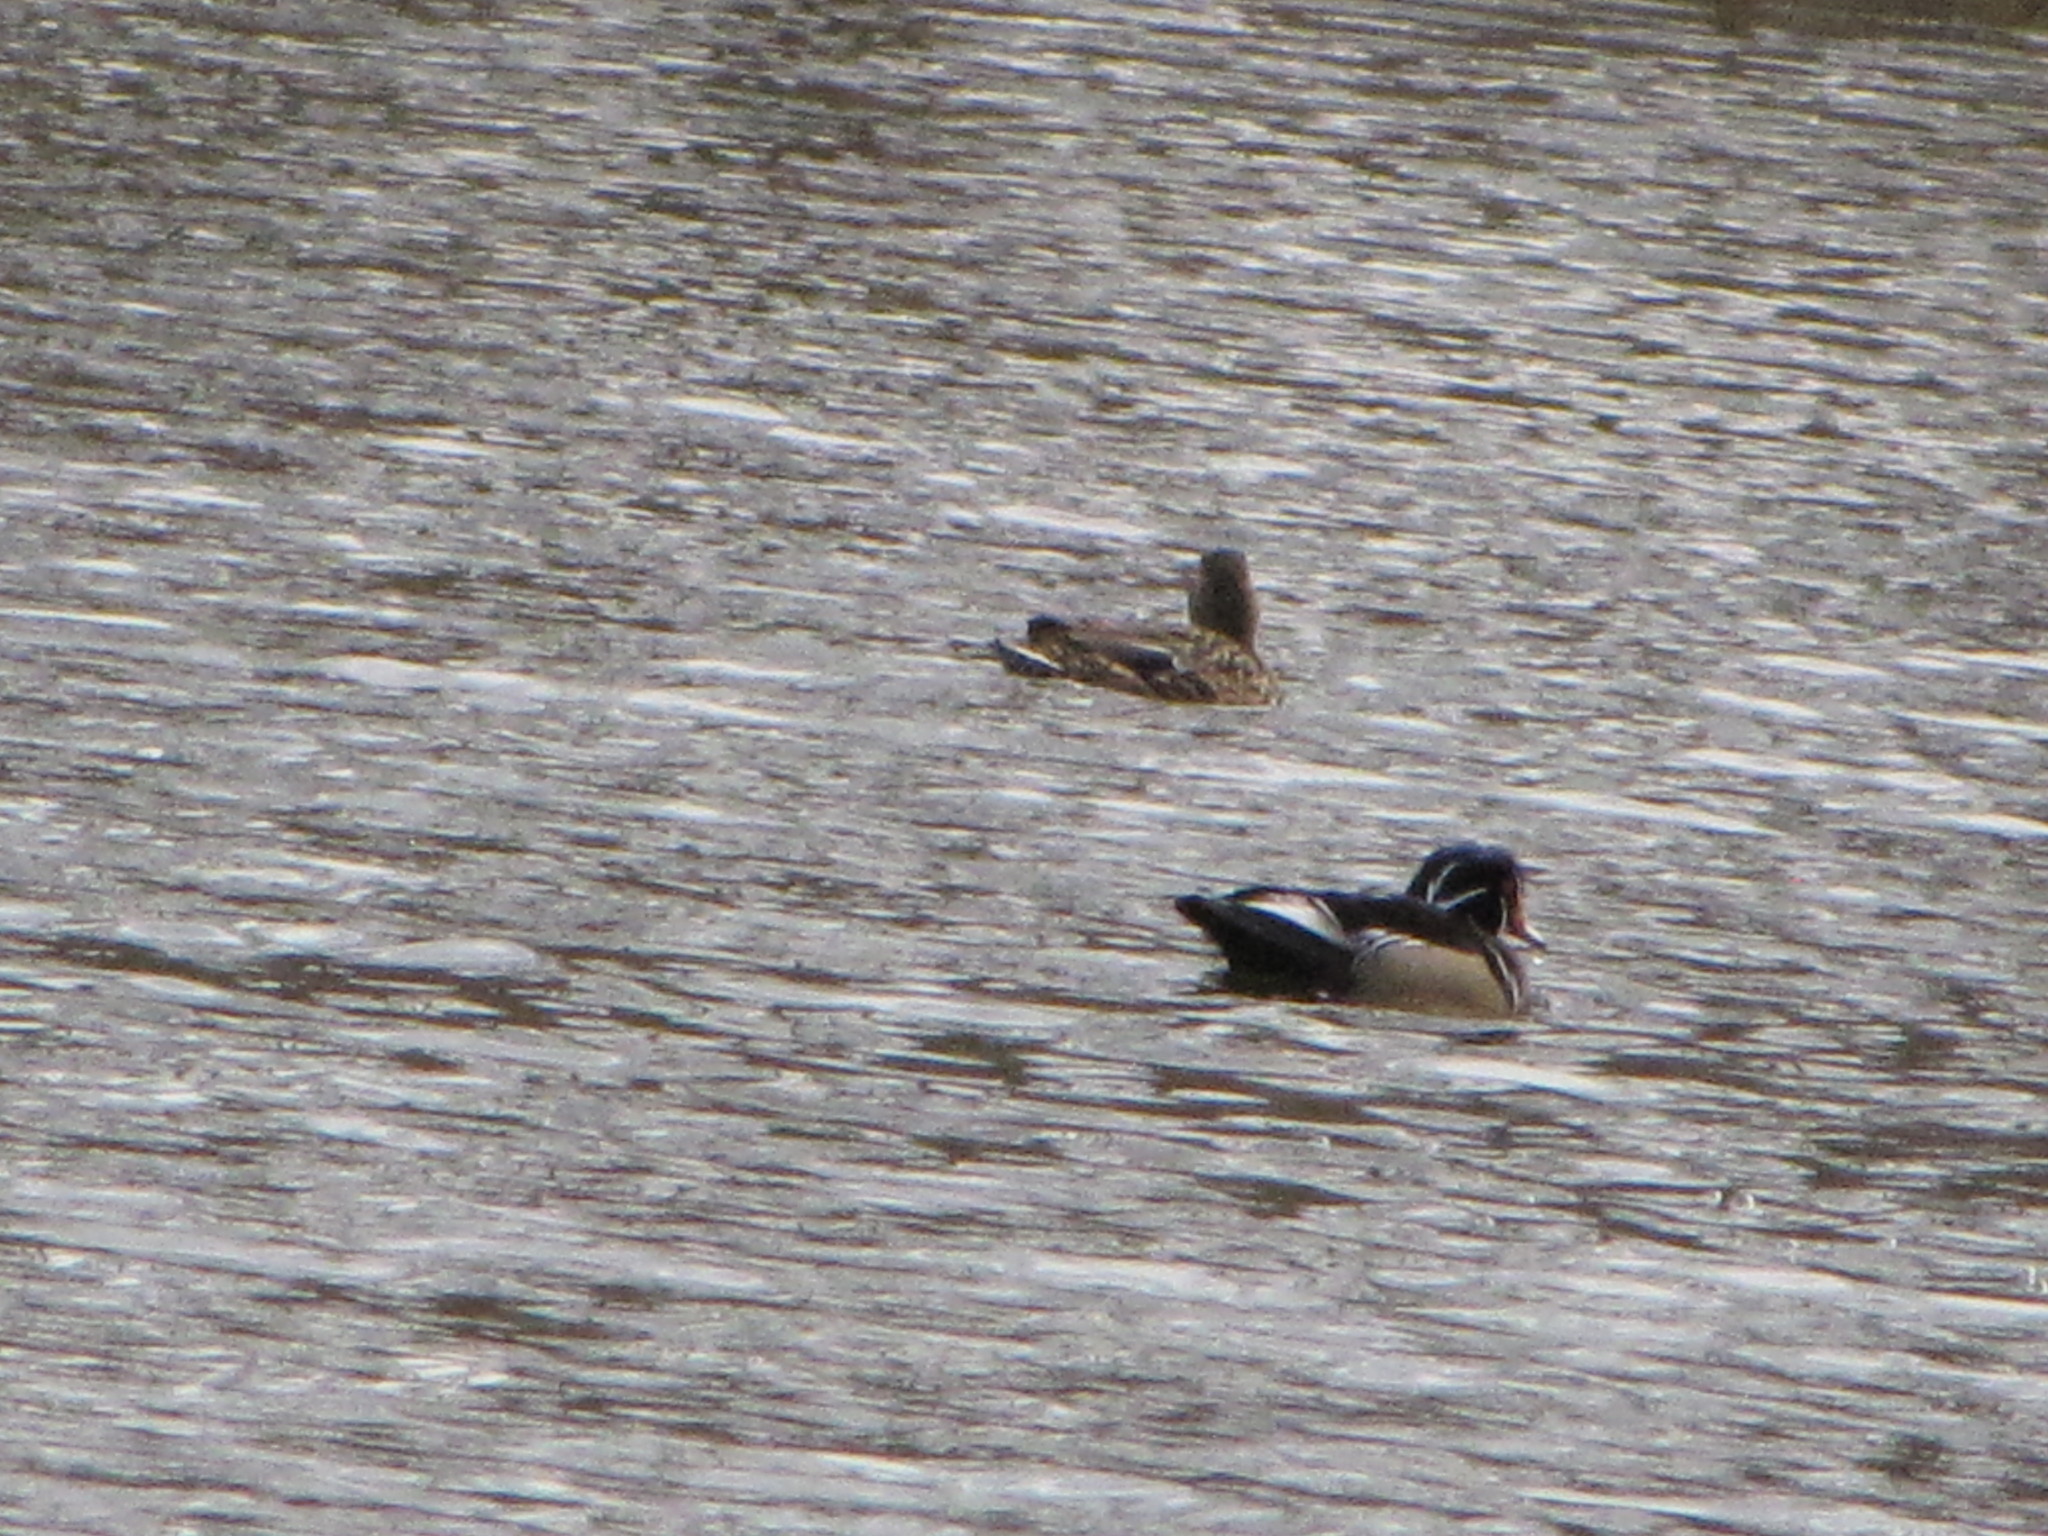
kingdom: Animalia
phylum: Chordata
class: Aves
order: Anseriformes
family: Anatidae
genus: Aix
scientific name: Aix sponsa
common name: Wood duck
